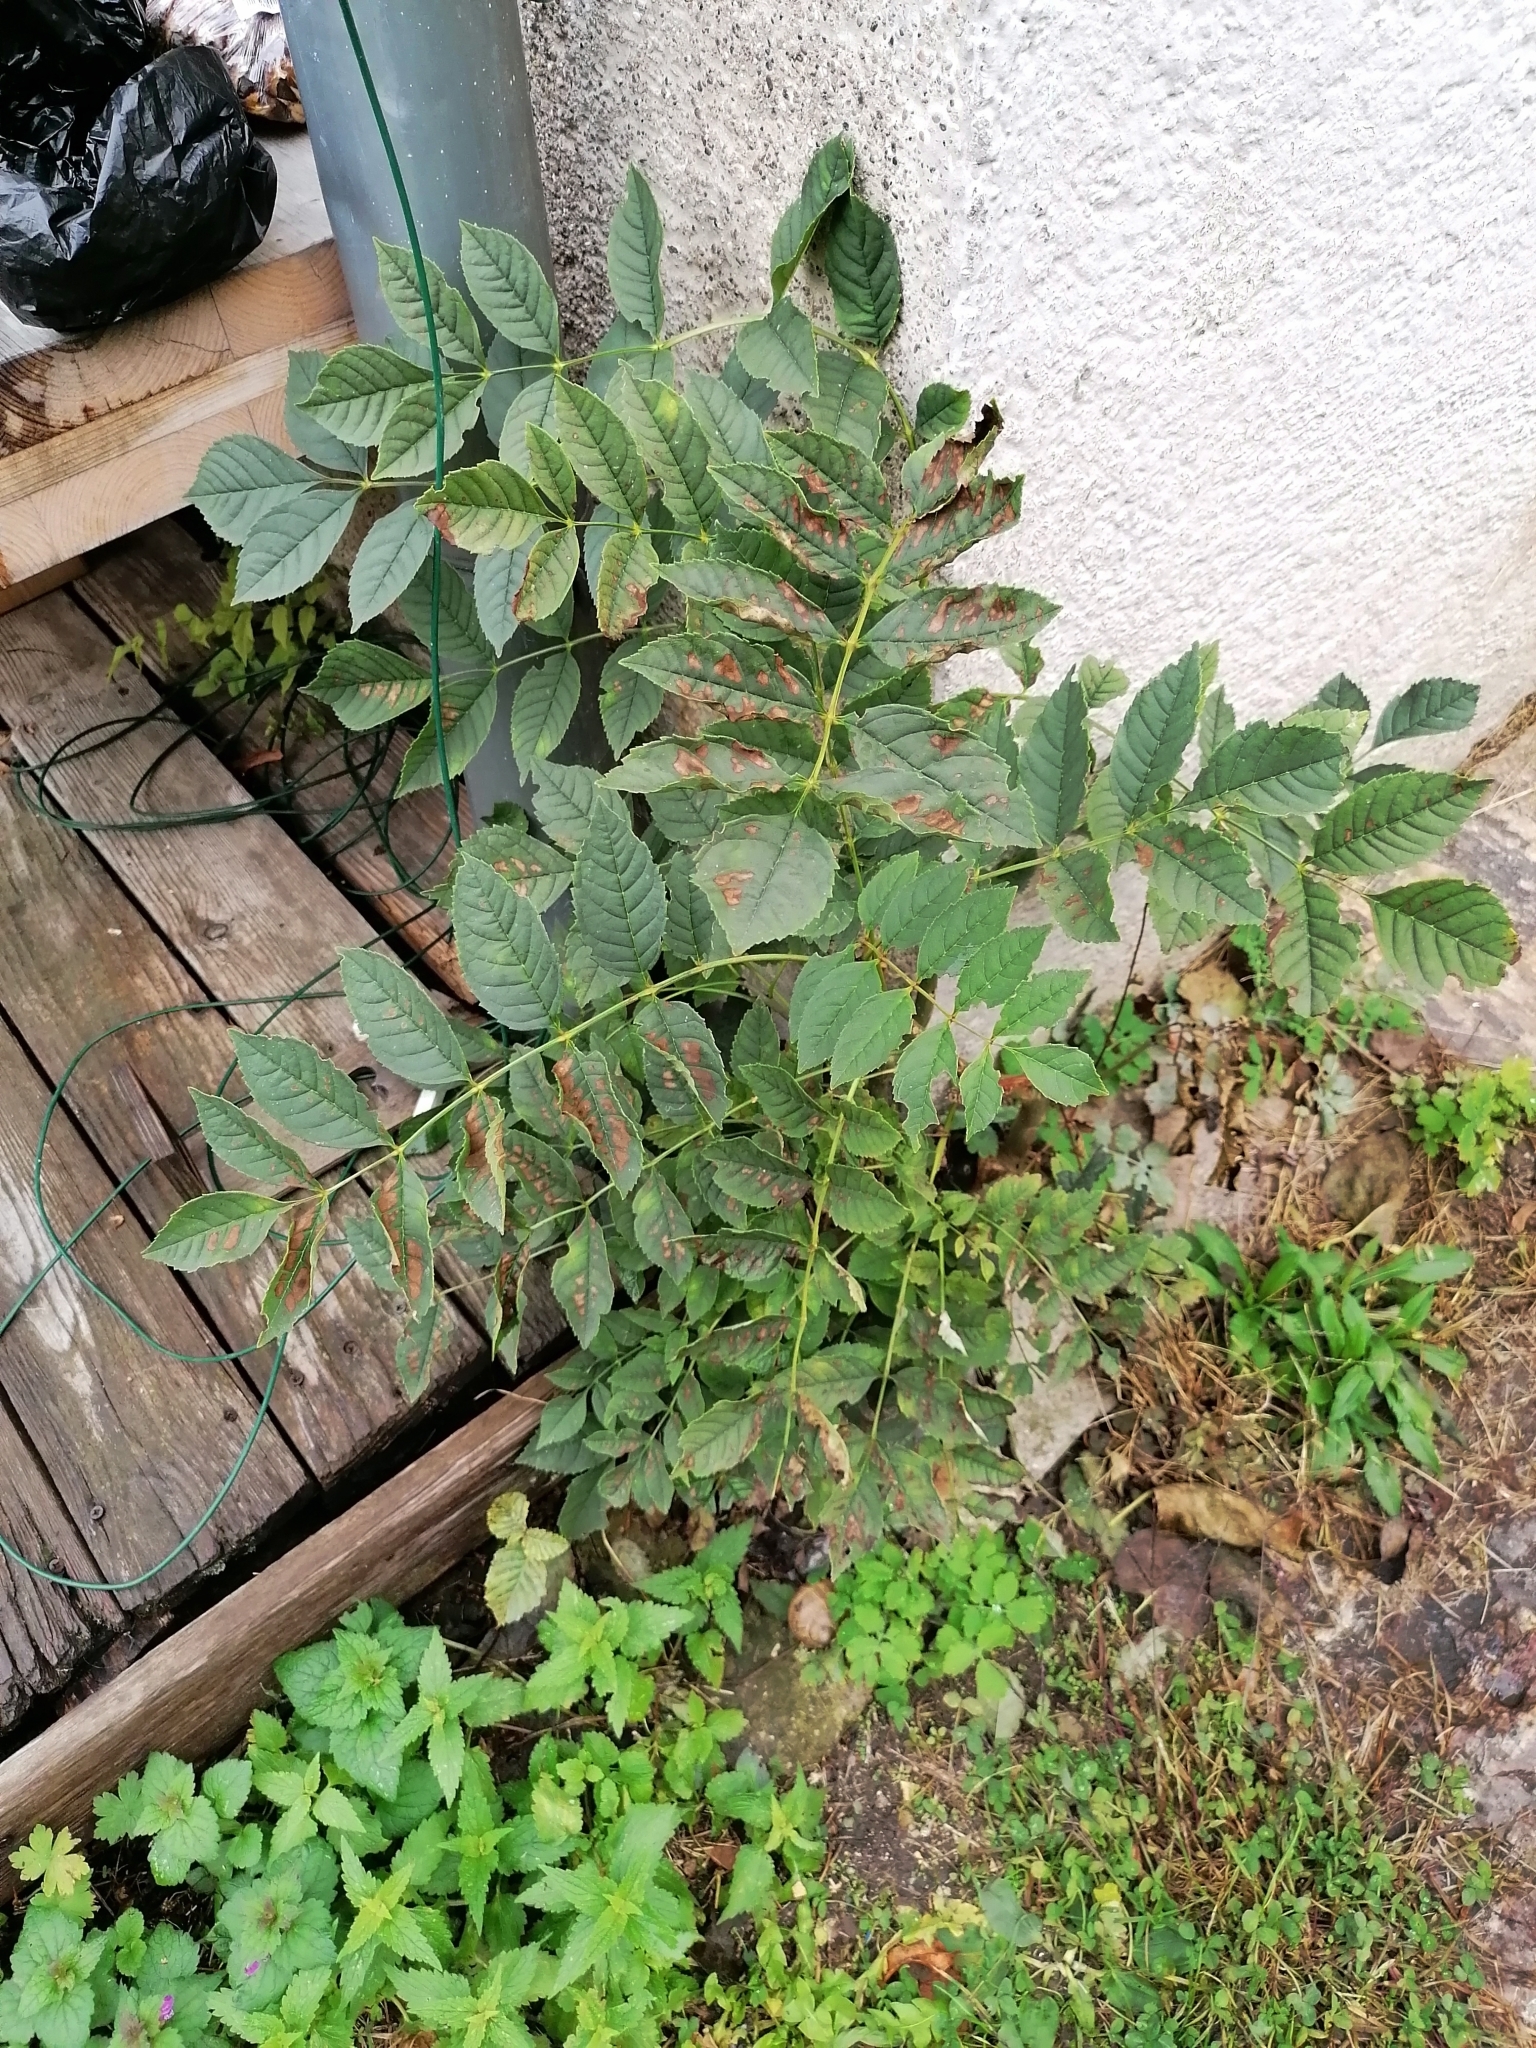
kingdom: Plantae
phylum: Tracheophyta
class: Magnoliopsida
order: Lamiales
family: Oleaceae
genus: Fraxinus
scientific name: Fraxinus excelsior
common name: European ash
